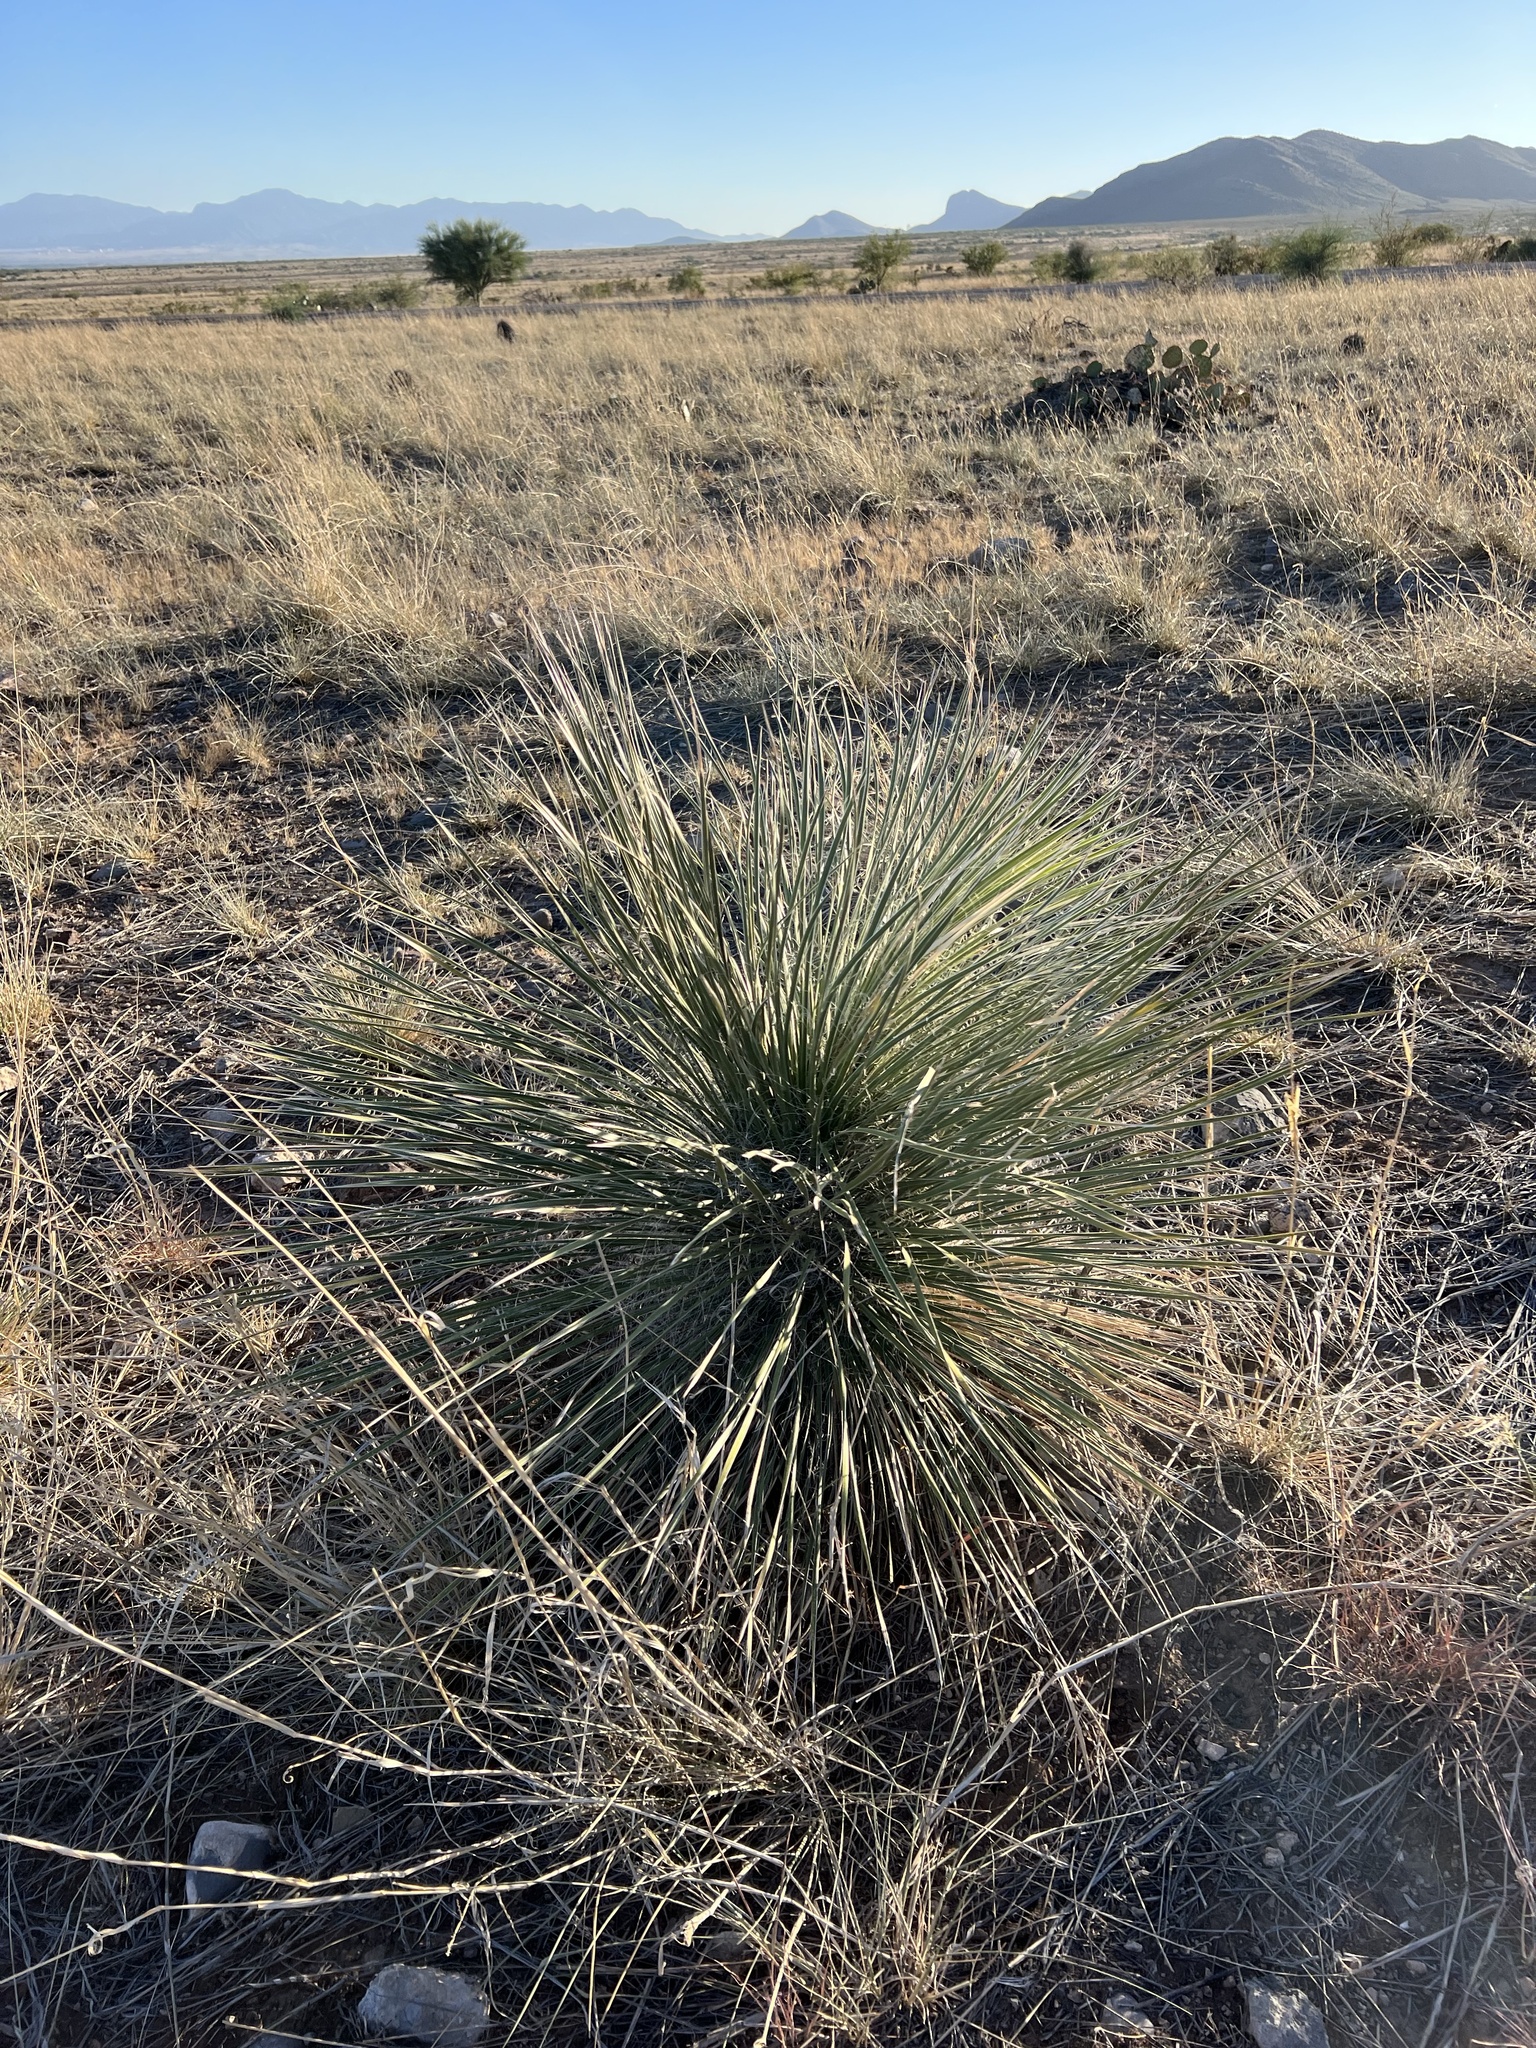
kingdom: Plantae
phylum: Tracheophyta
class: Liliopsida
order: Asparagales
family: Asparagaceae
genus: Yucca
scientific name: Yucca elata
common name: Palmella
